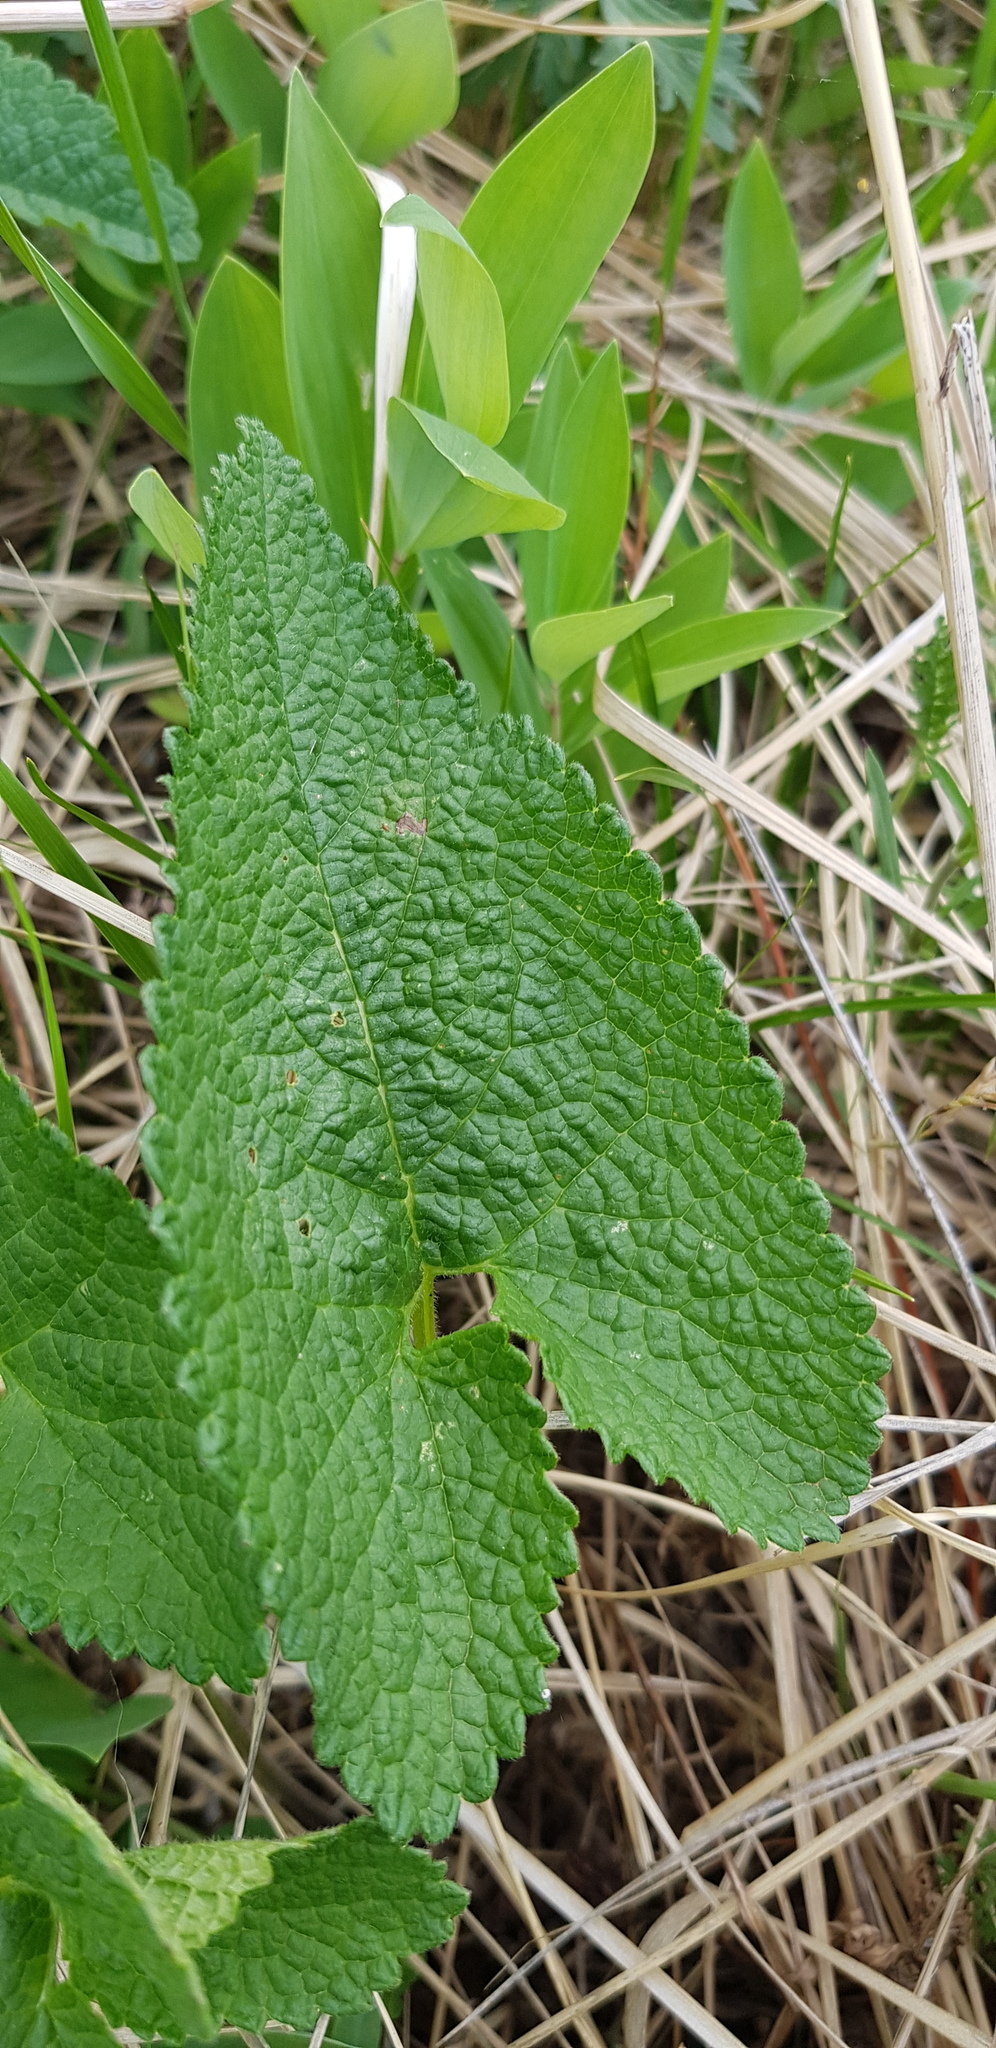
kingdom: Plantae
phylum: Tracheophyta
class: Magnoliopsida
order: Lamiales
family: Lamiaceae
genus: Phlomoides
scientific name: Phlomoides tuberosa
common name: Tuberous jerusalem sage
